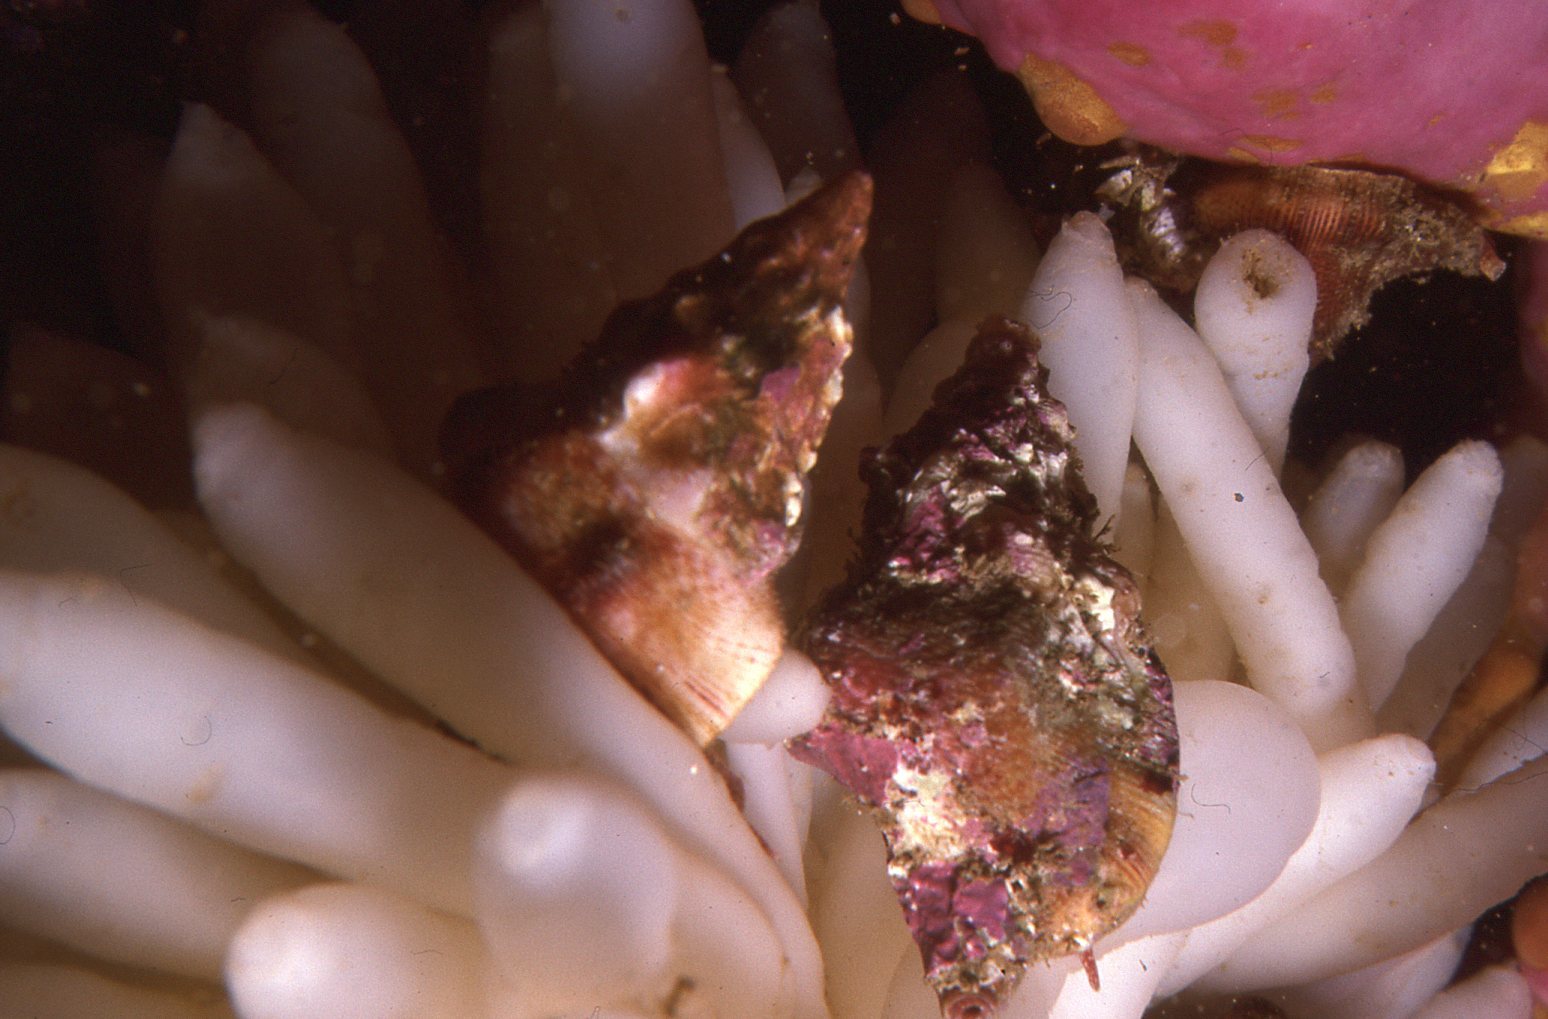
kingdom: Animalia
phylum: Mollusca
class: Gastropoda
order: Littorinimorpha
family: Cymatiidae
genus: Austrosassia
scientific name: Austrosassia parkinsonia
